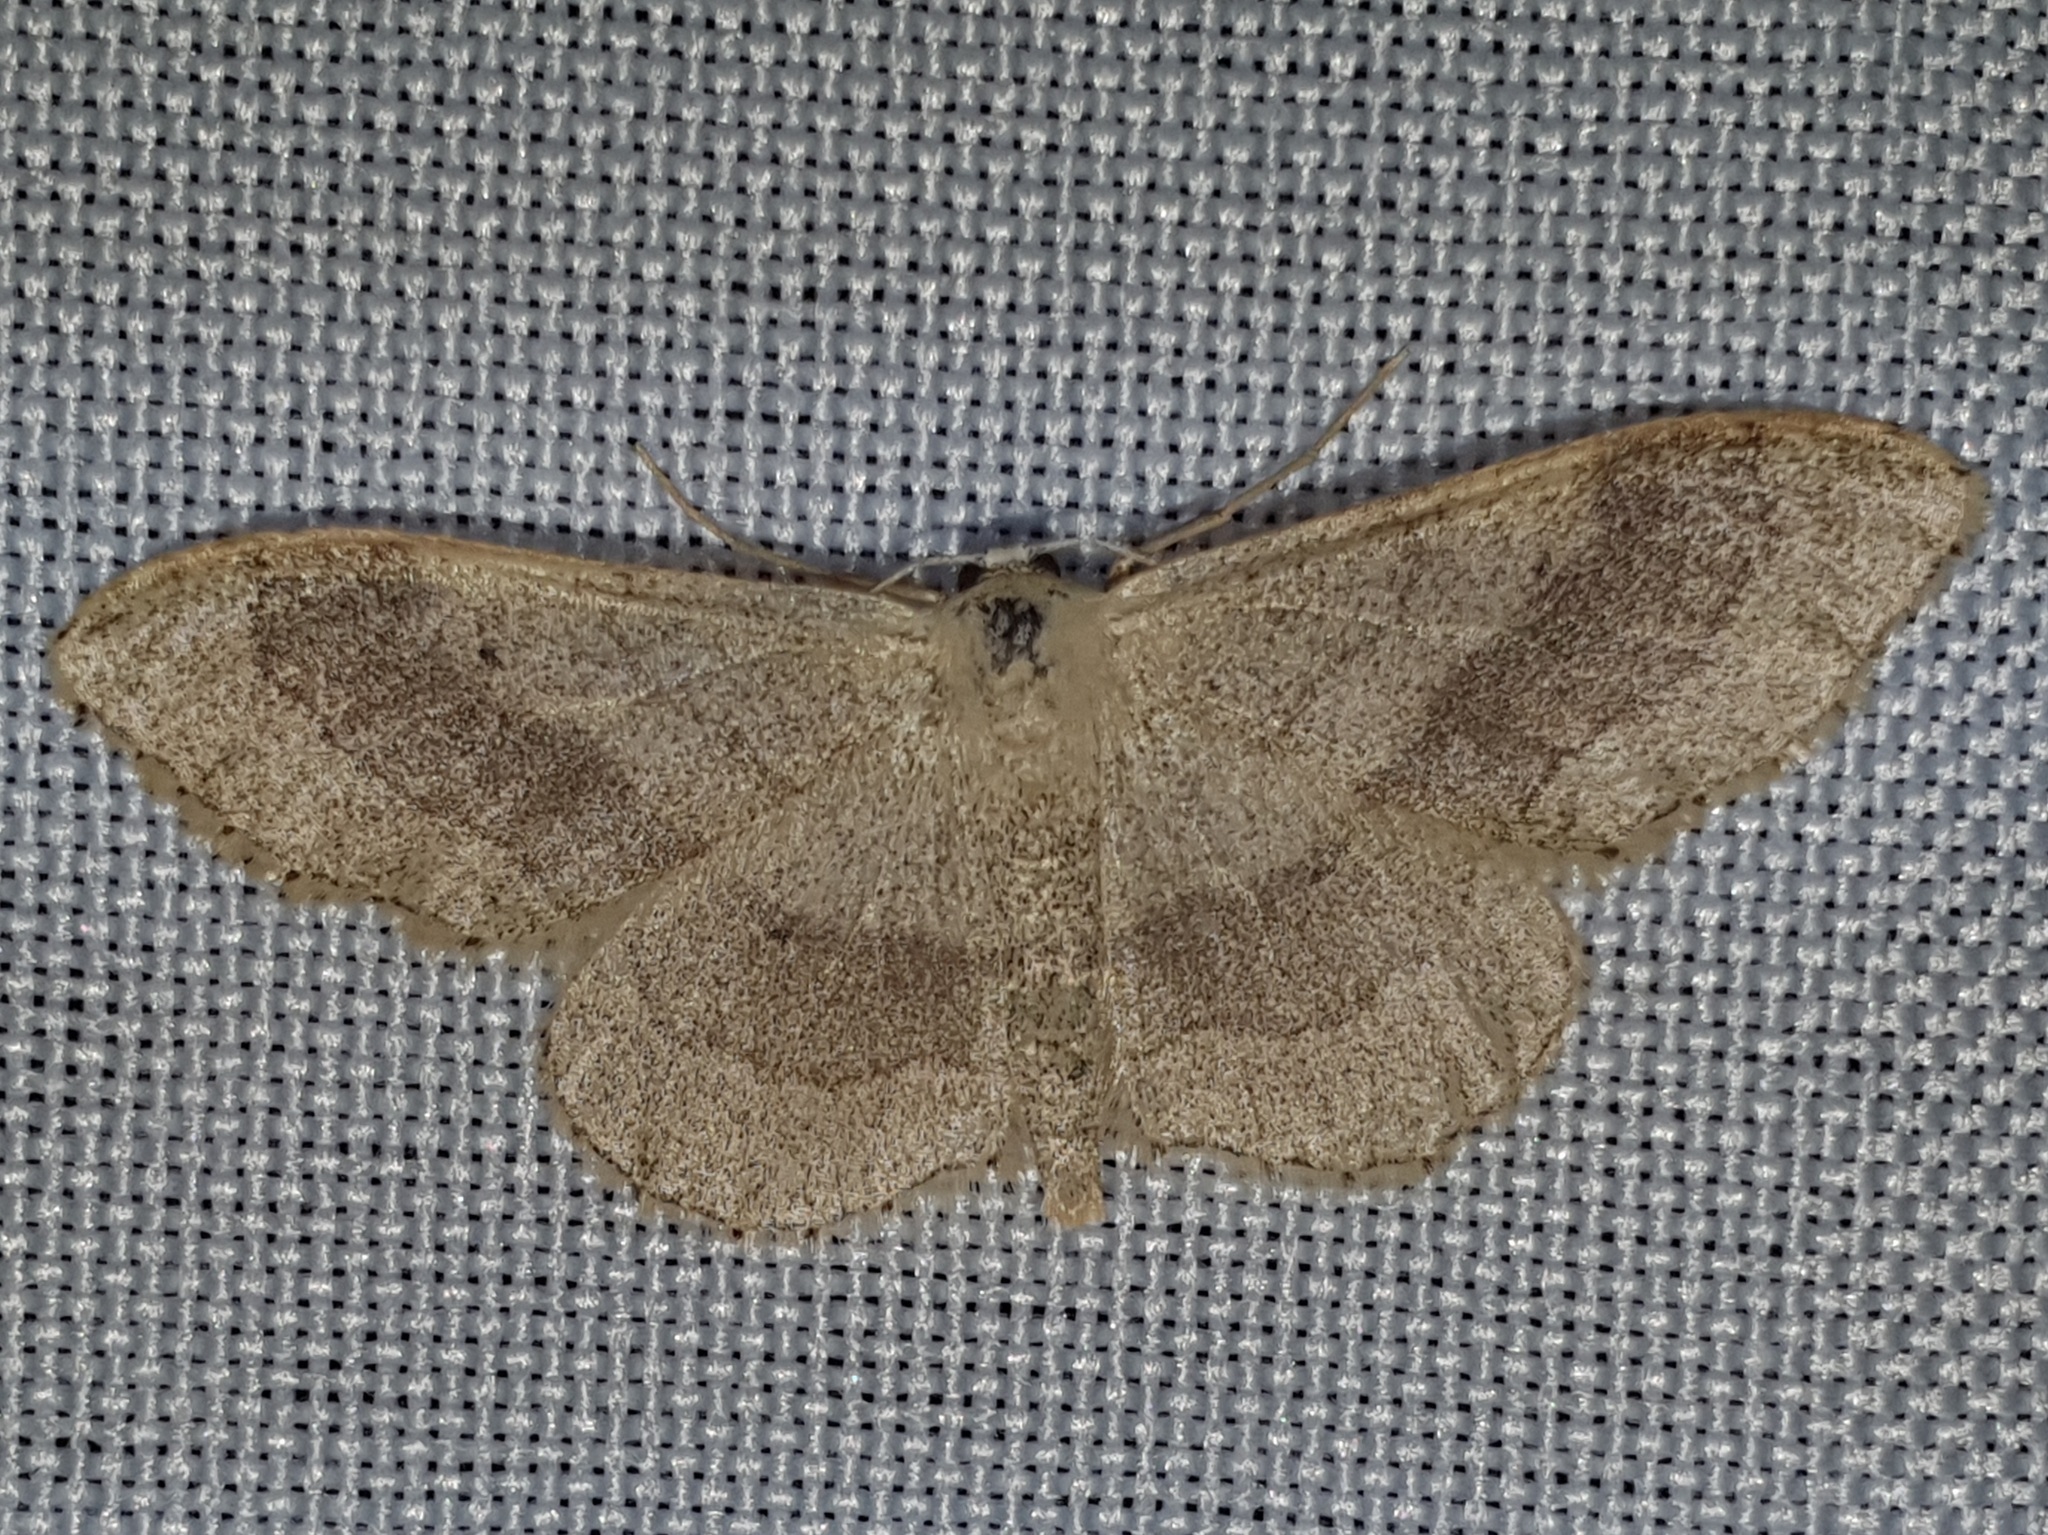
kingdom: Animalia
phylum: Arthropoda
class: Insecta
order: Lepidoptera
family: Geometridae
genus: Idaea
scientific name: Idaea aversata
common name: Riband wave
